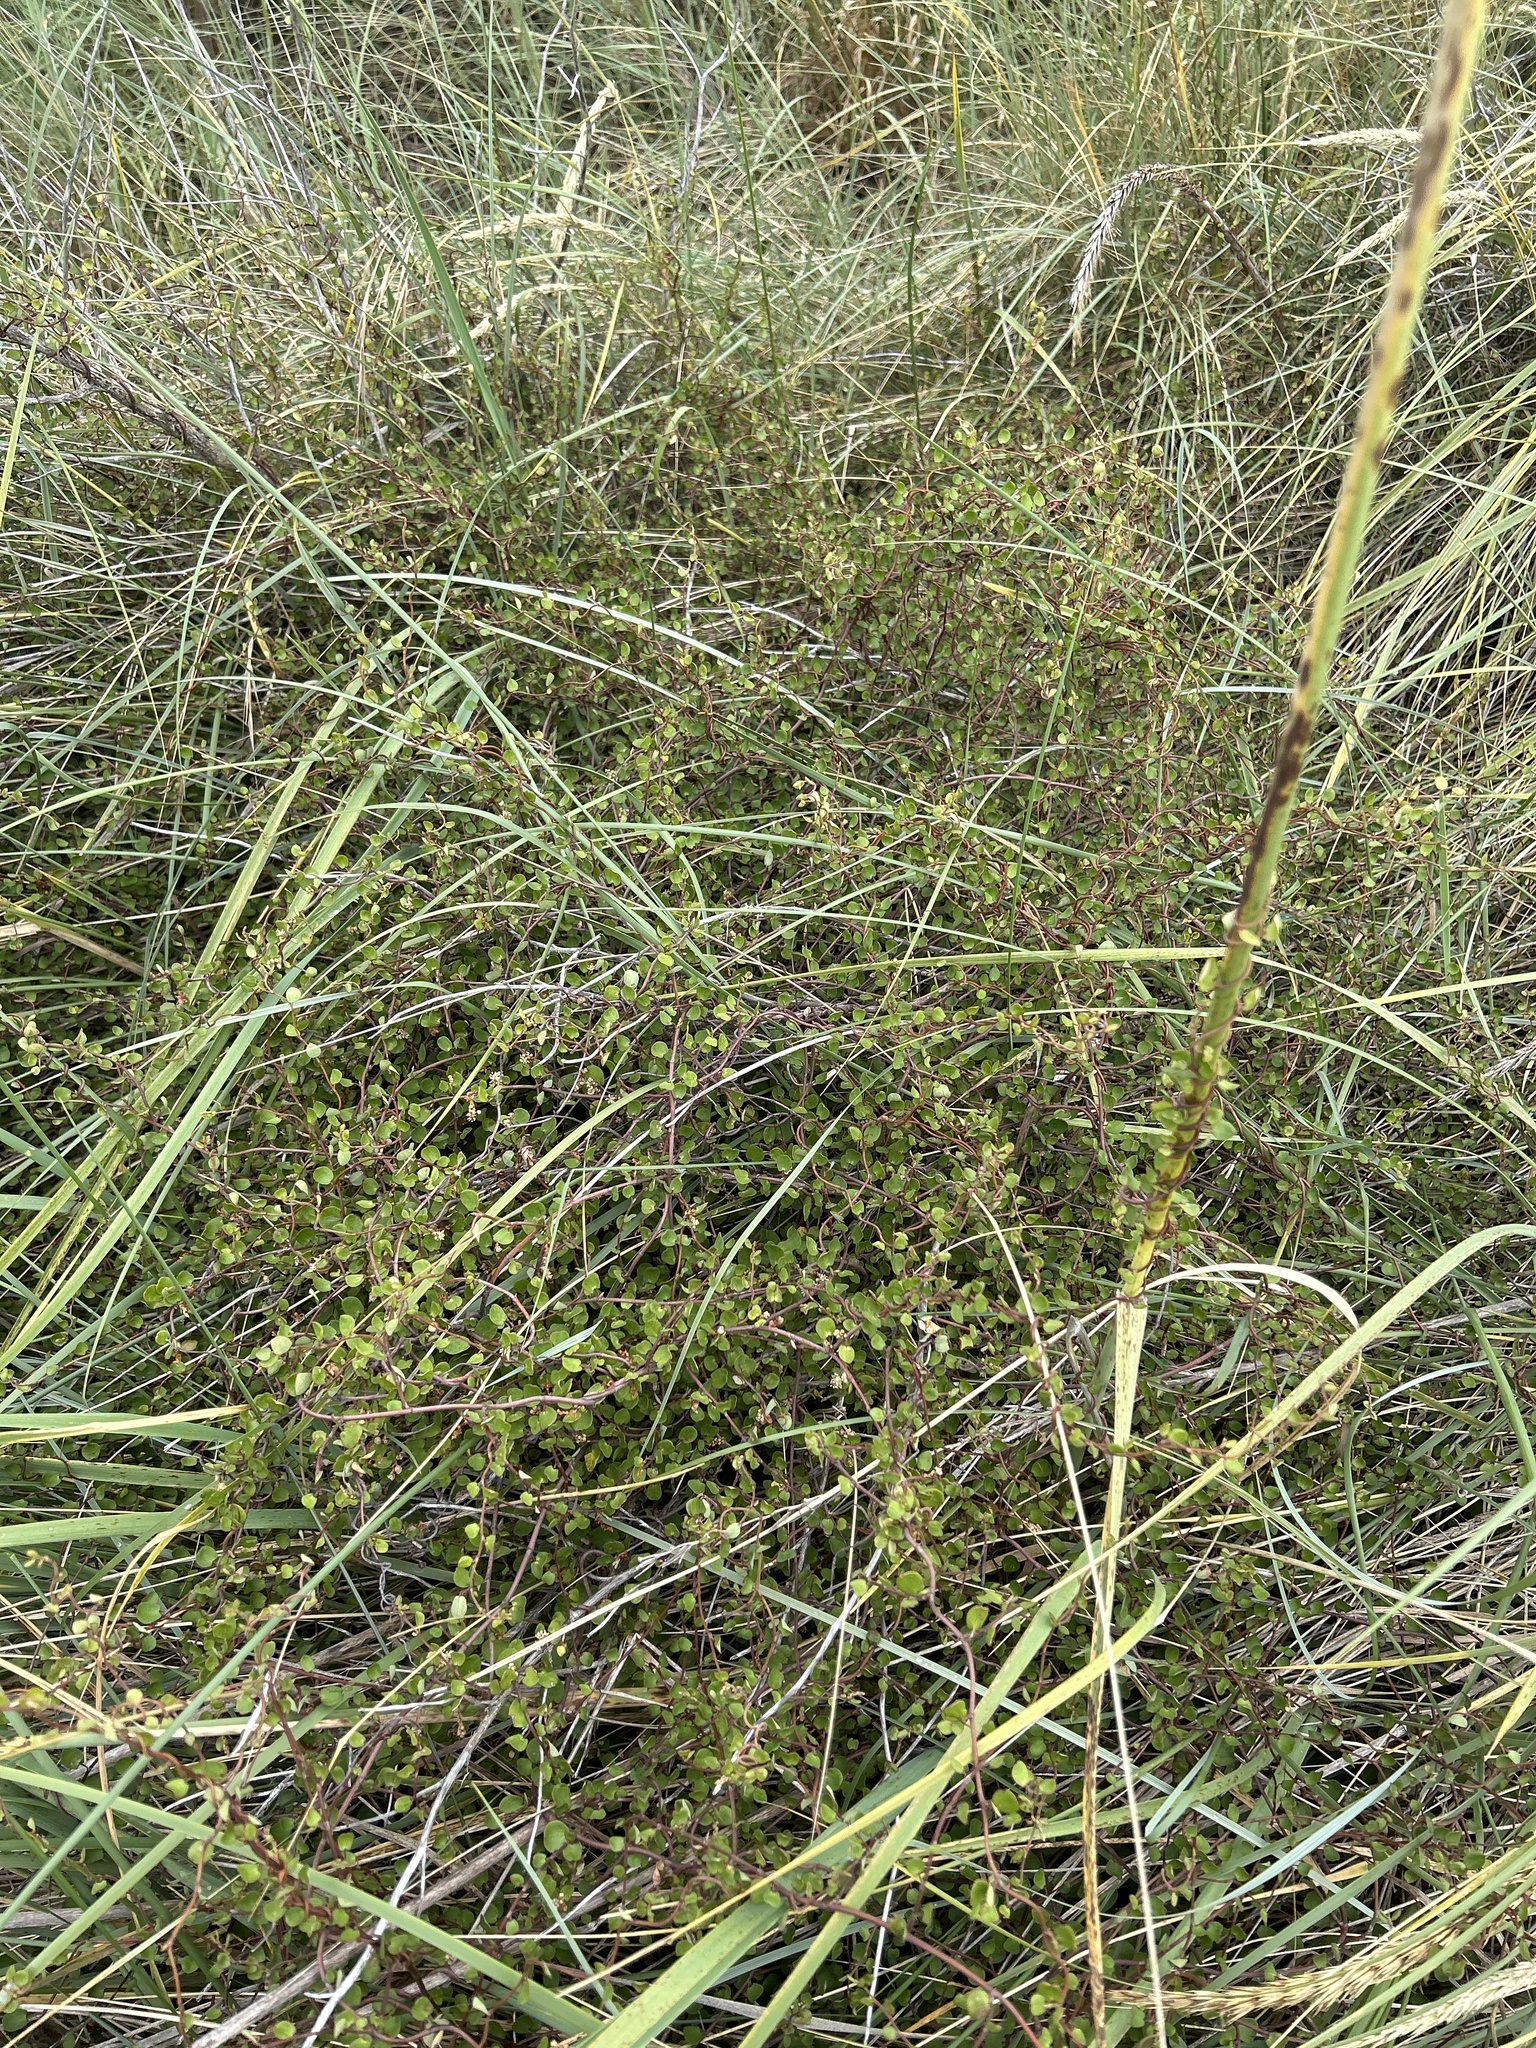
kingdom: Plantae
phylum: Tracheophyta
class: Magnoliopsida
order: Caryophyllales
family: Polygonaceae
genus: Muehlenbeckia
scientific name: Muehlenbeckia complexa
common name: Wireplant
